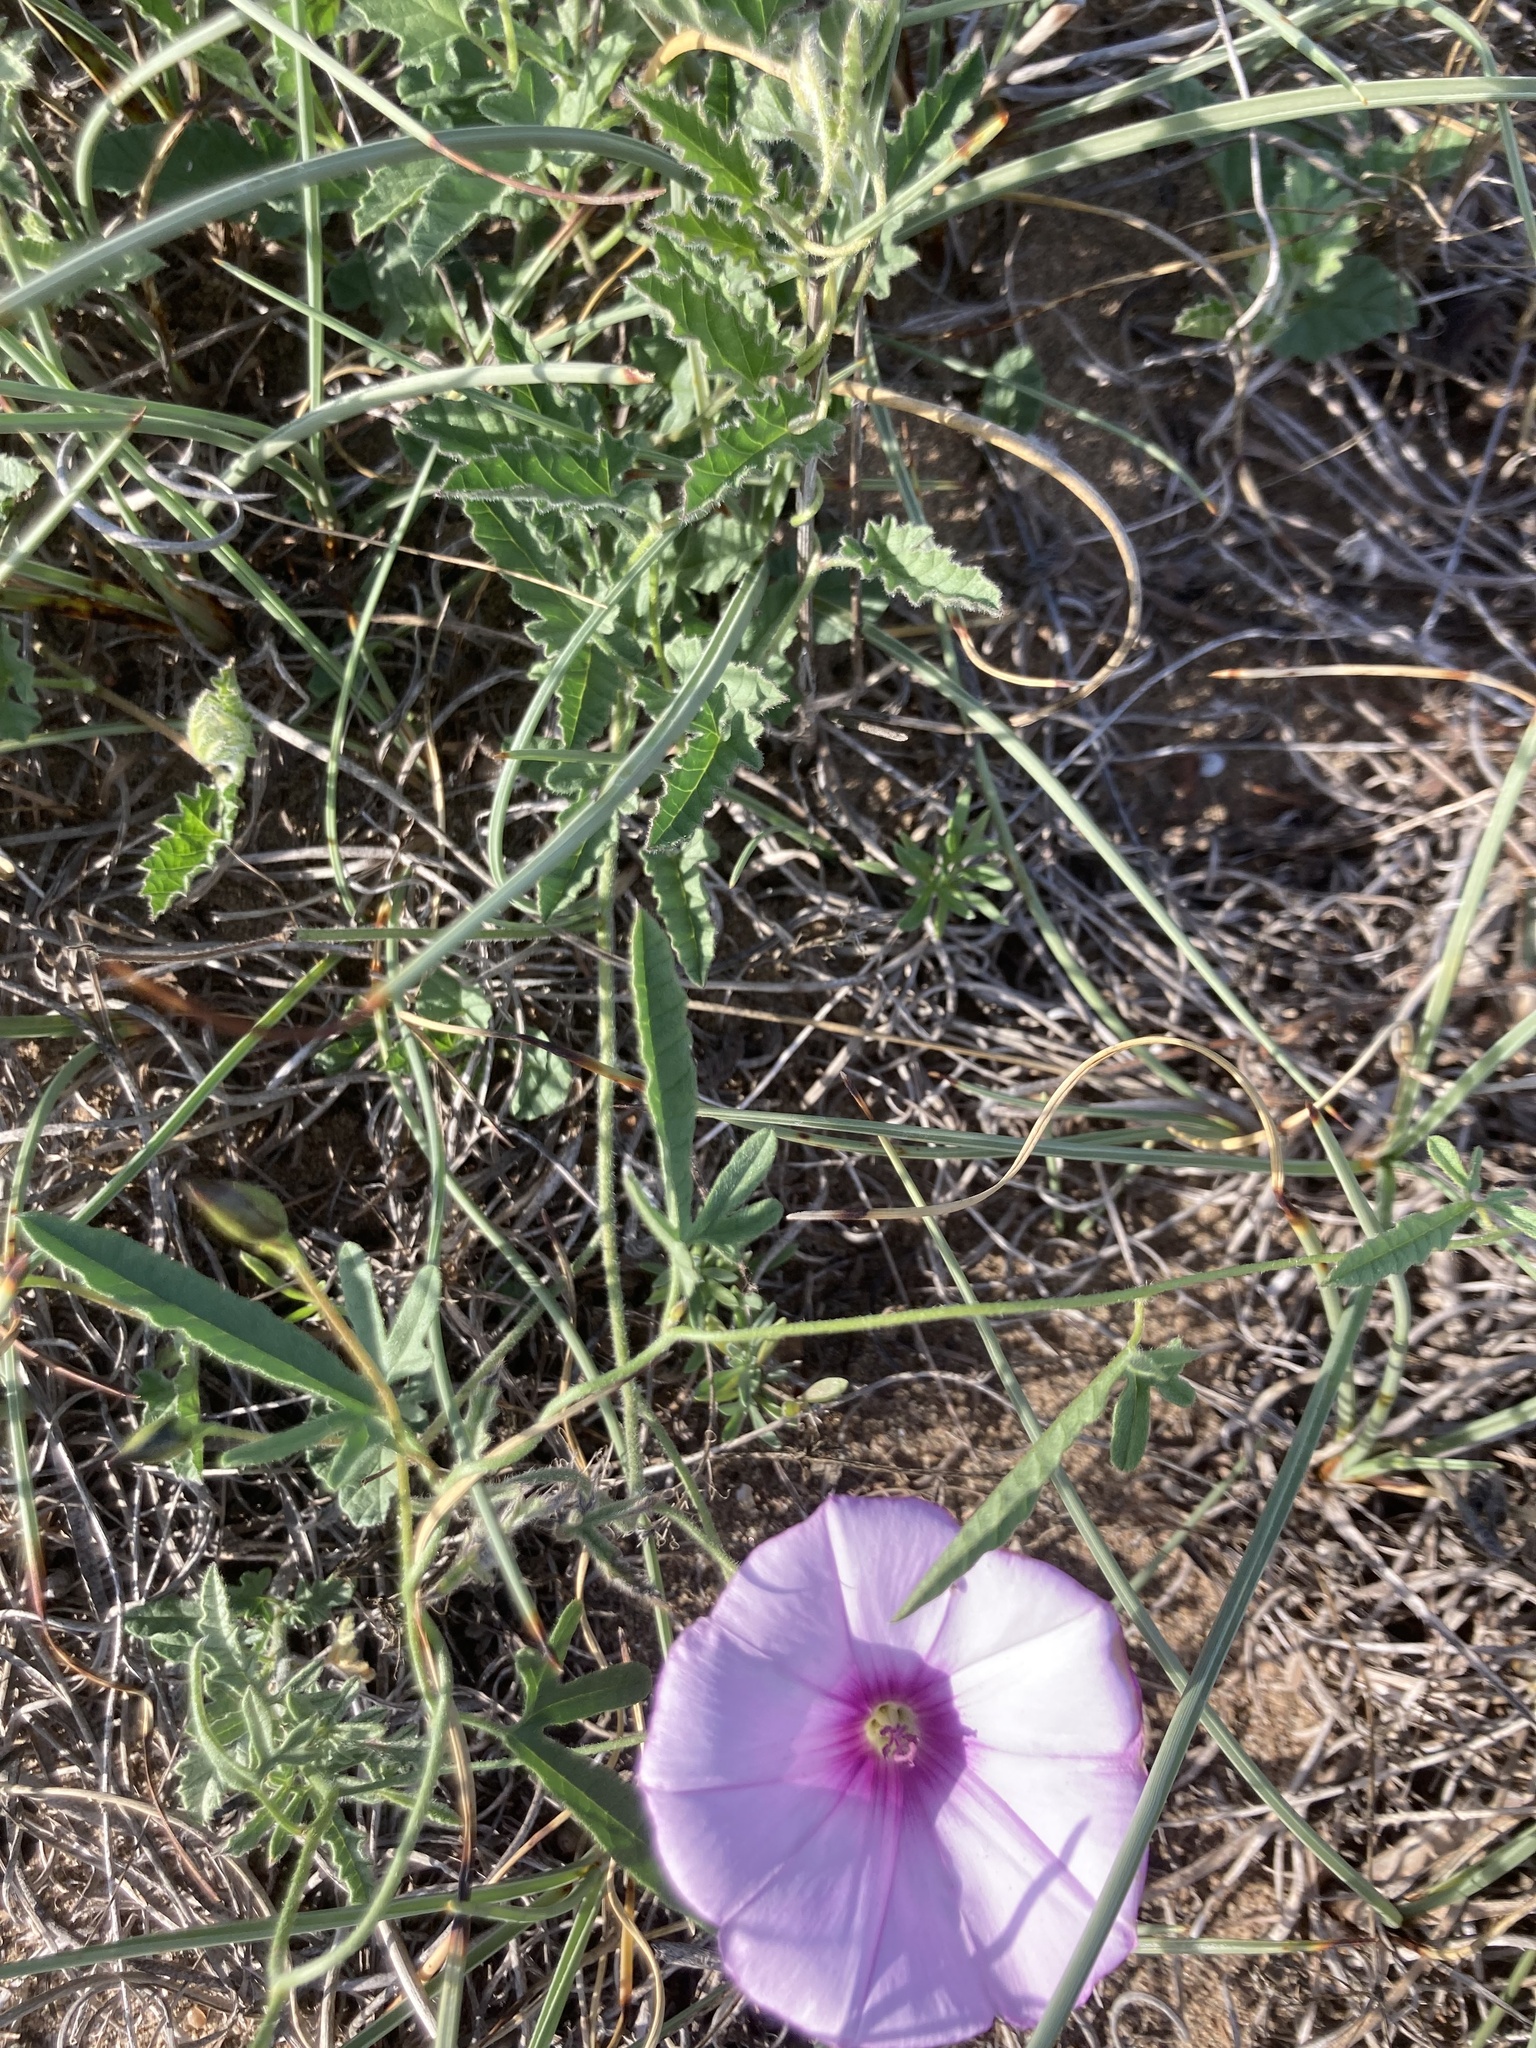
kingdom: Plantae
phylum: Tracheophyta
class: Magnoliopsida
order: Solanales
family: Convolvulaceae
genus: Convolvulus
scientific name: Convolvulus althaeoides
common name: Mallow bindweed
